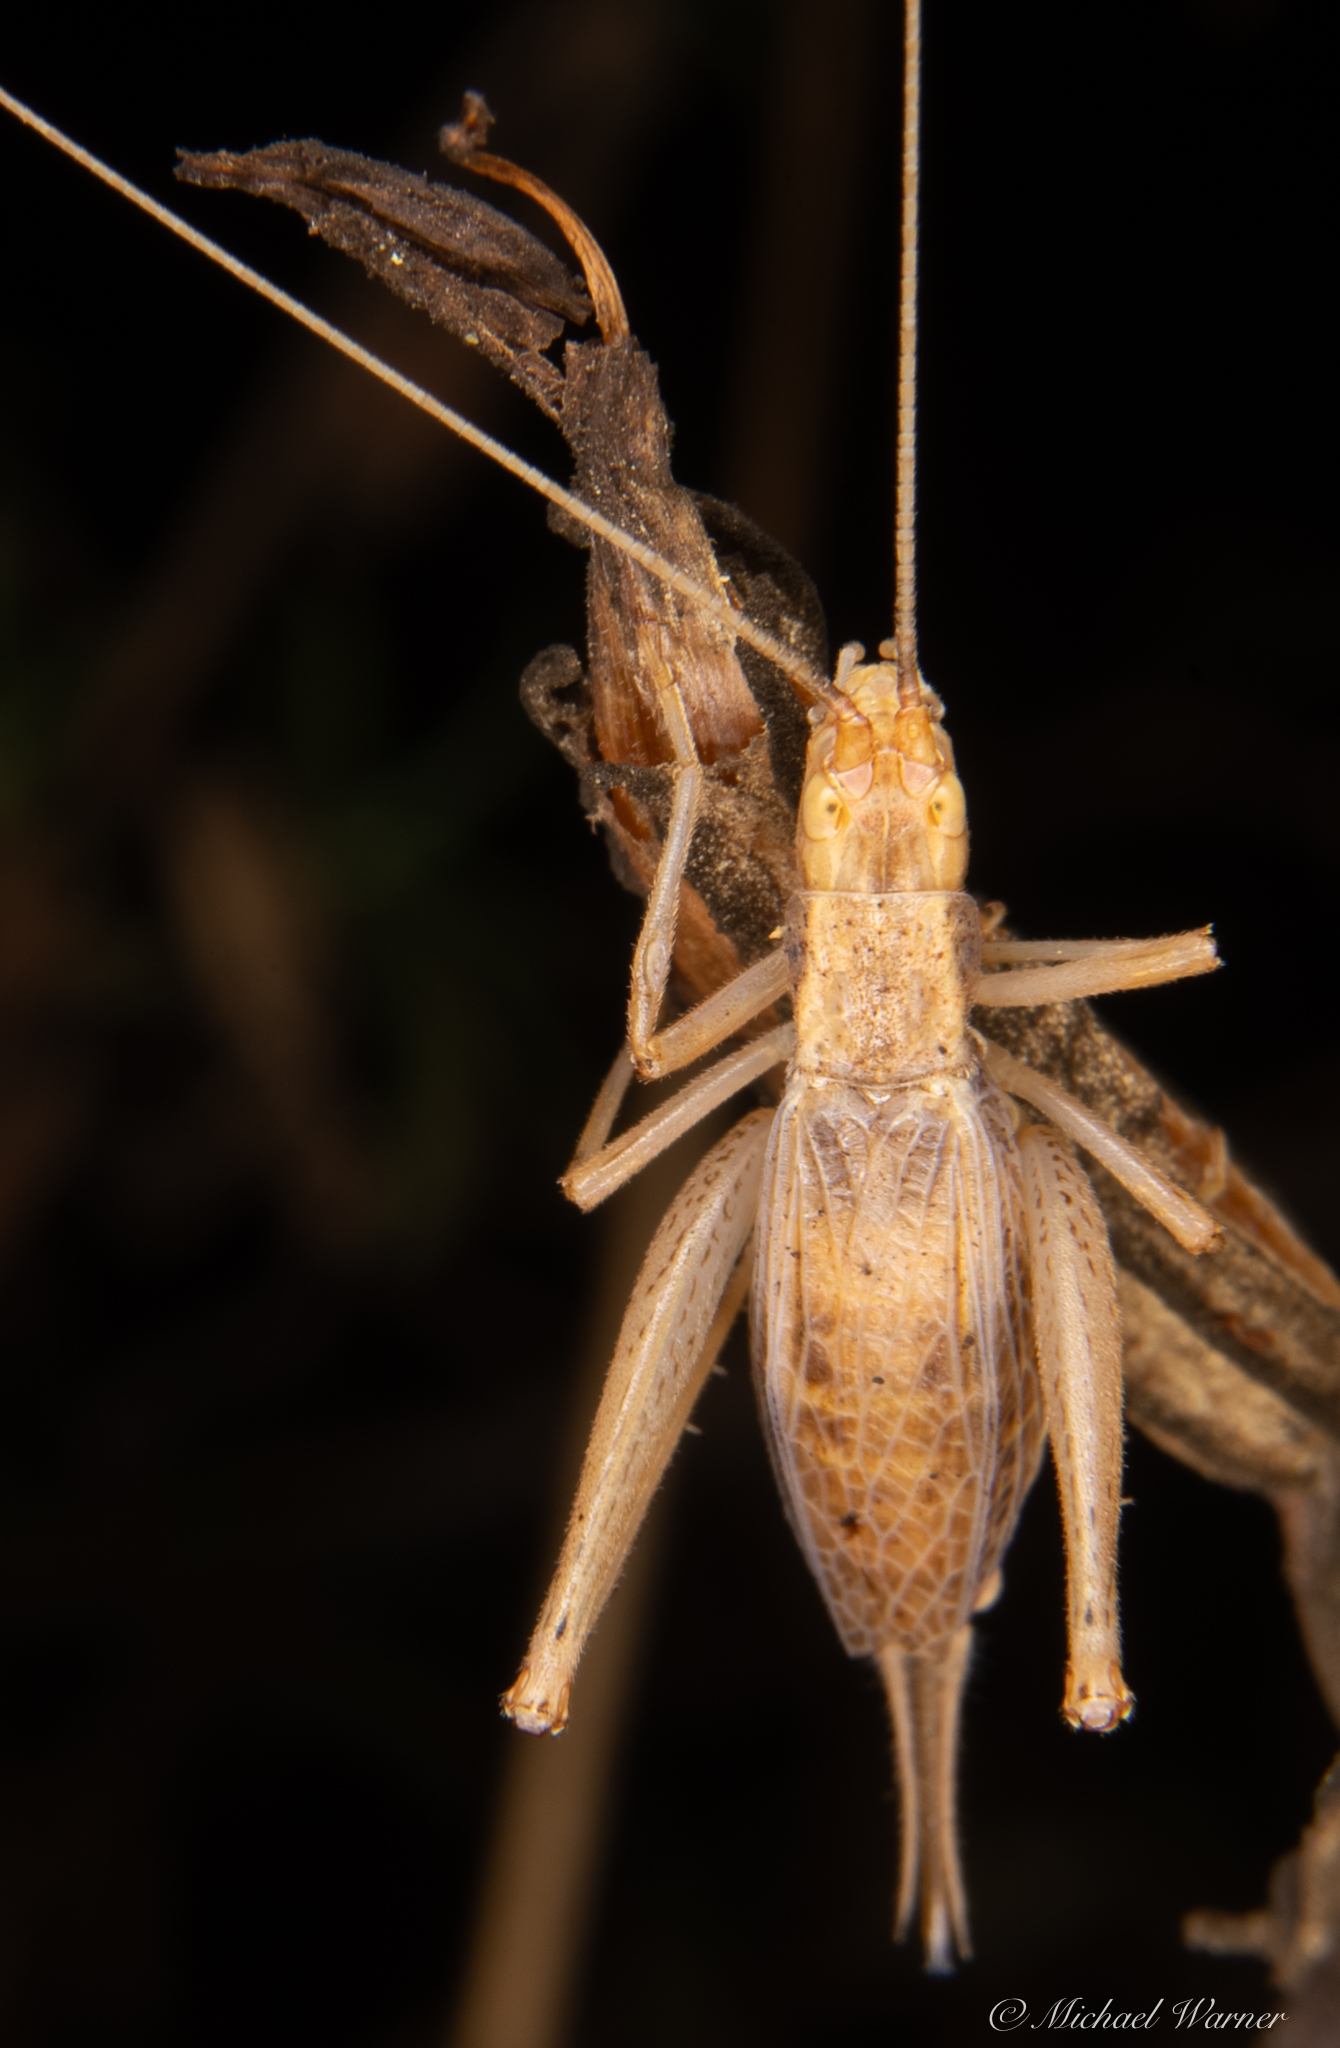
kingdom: Animalia
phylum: Arthropoda
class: Insecta
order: Orthoptera
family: Gryllidae
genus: Oecanthus
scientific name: Oecanthus californicus
